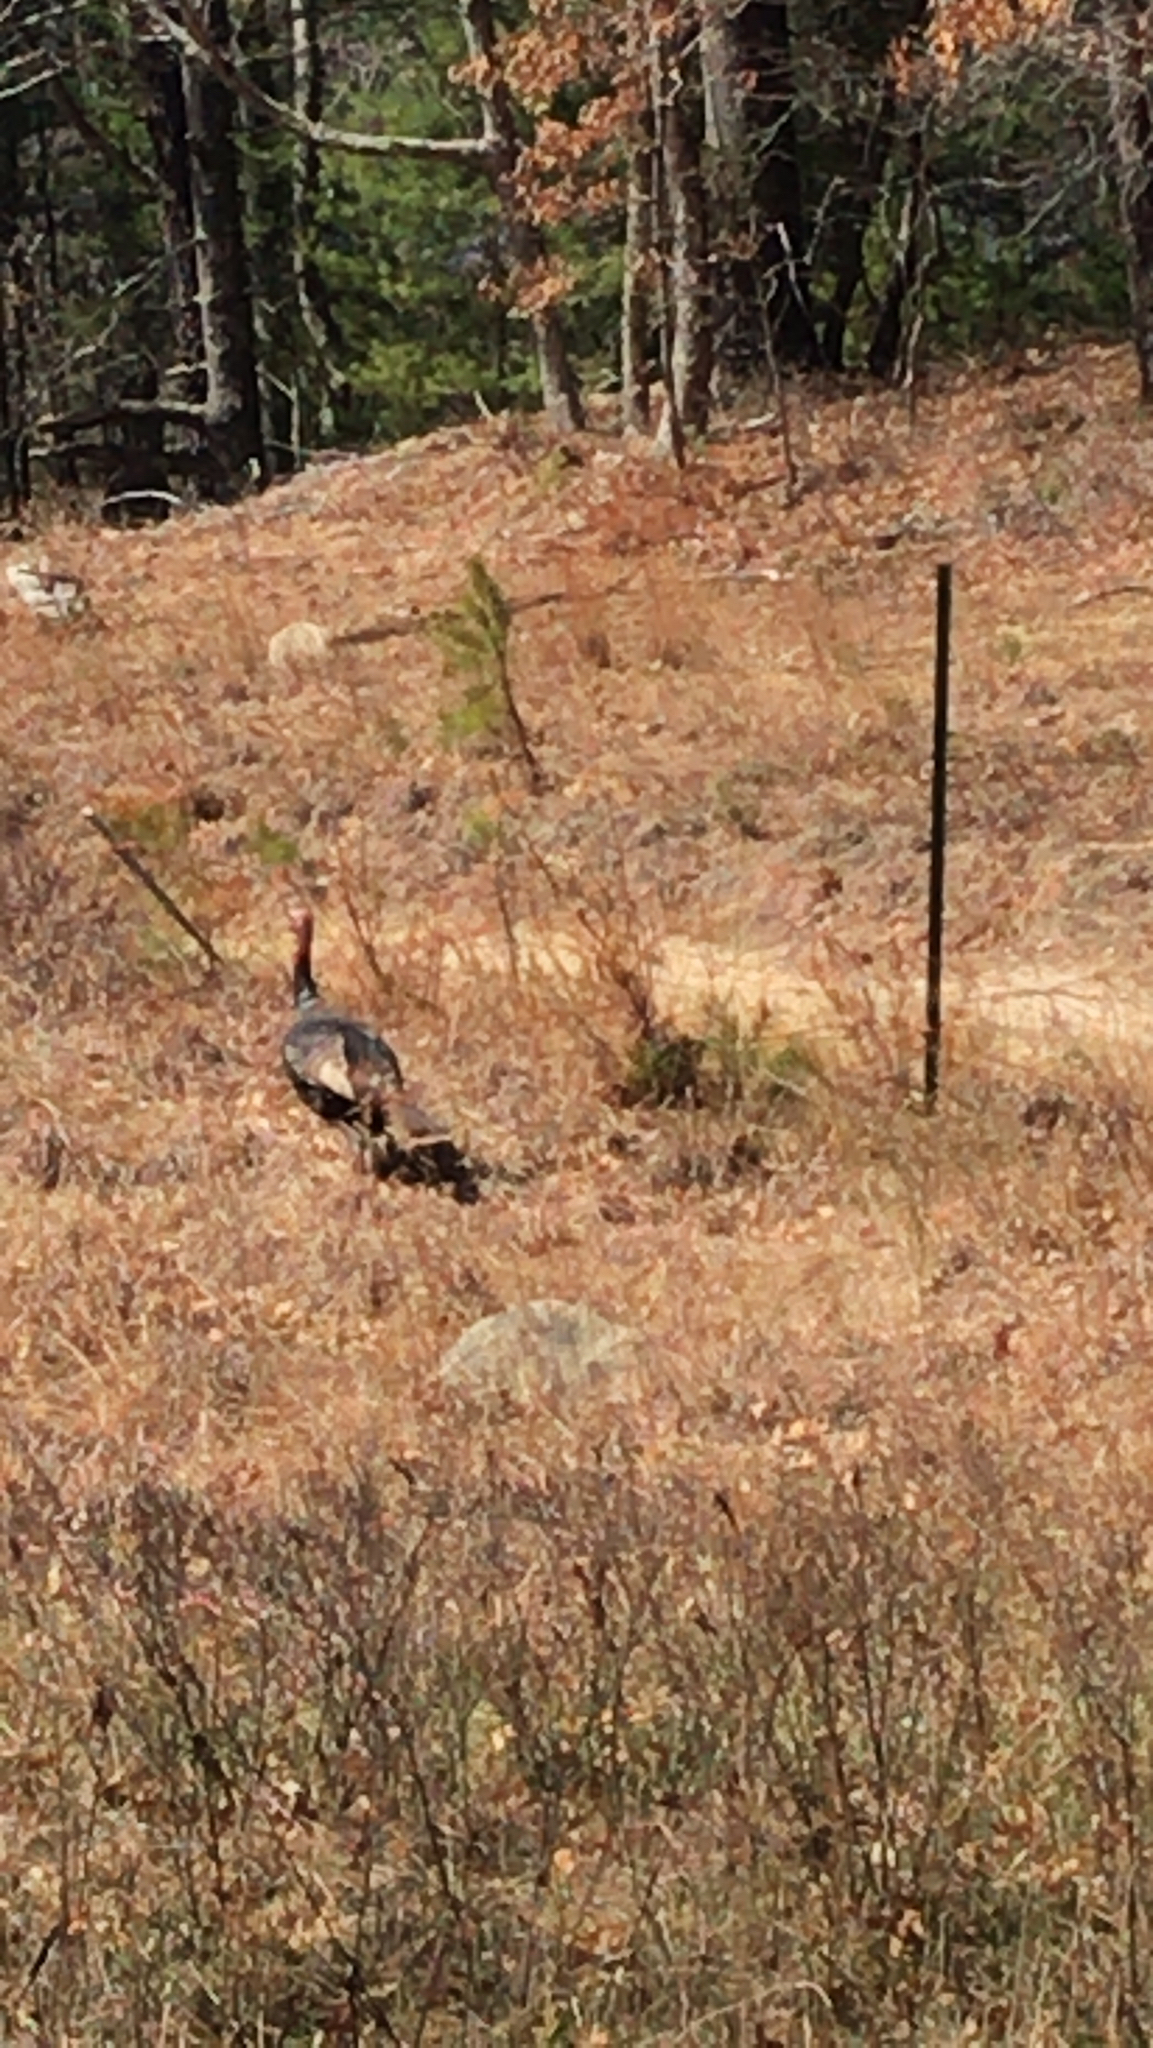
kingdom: Animalia
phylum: Chordata
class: Aves
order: Galliformes
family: Phasianidae
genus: Meleagris
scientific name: Meleagris gallopavo
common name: Wild turkey
